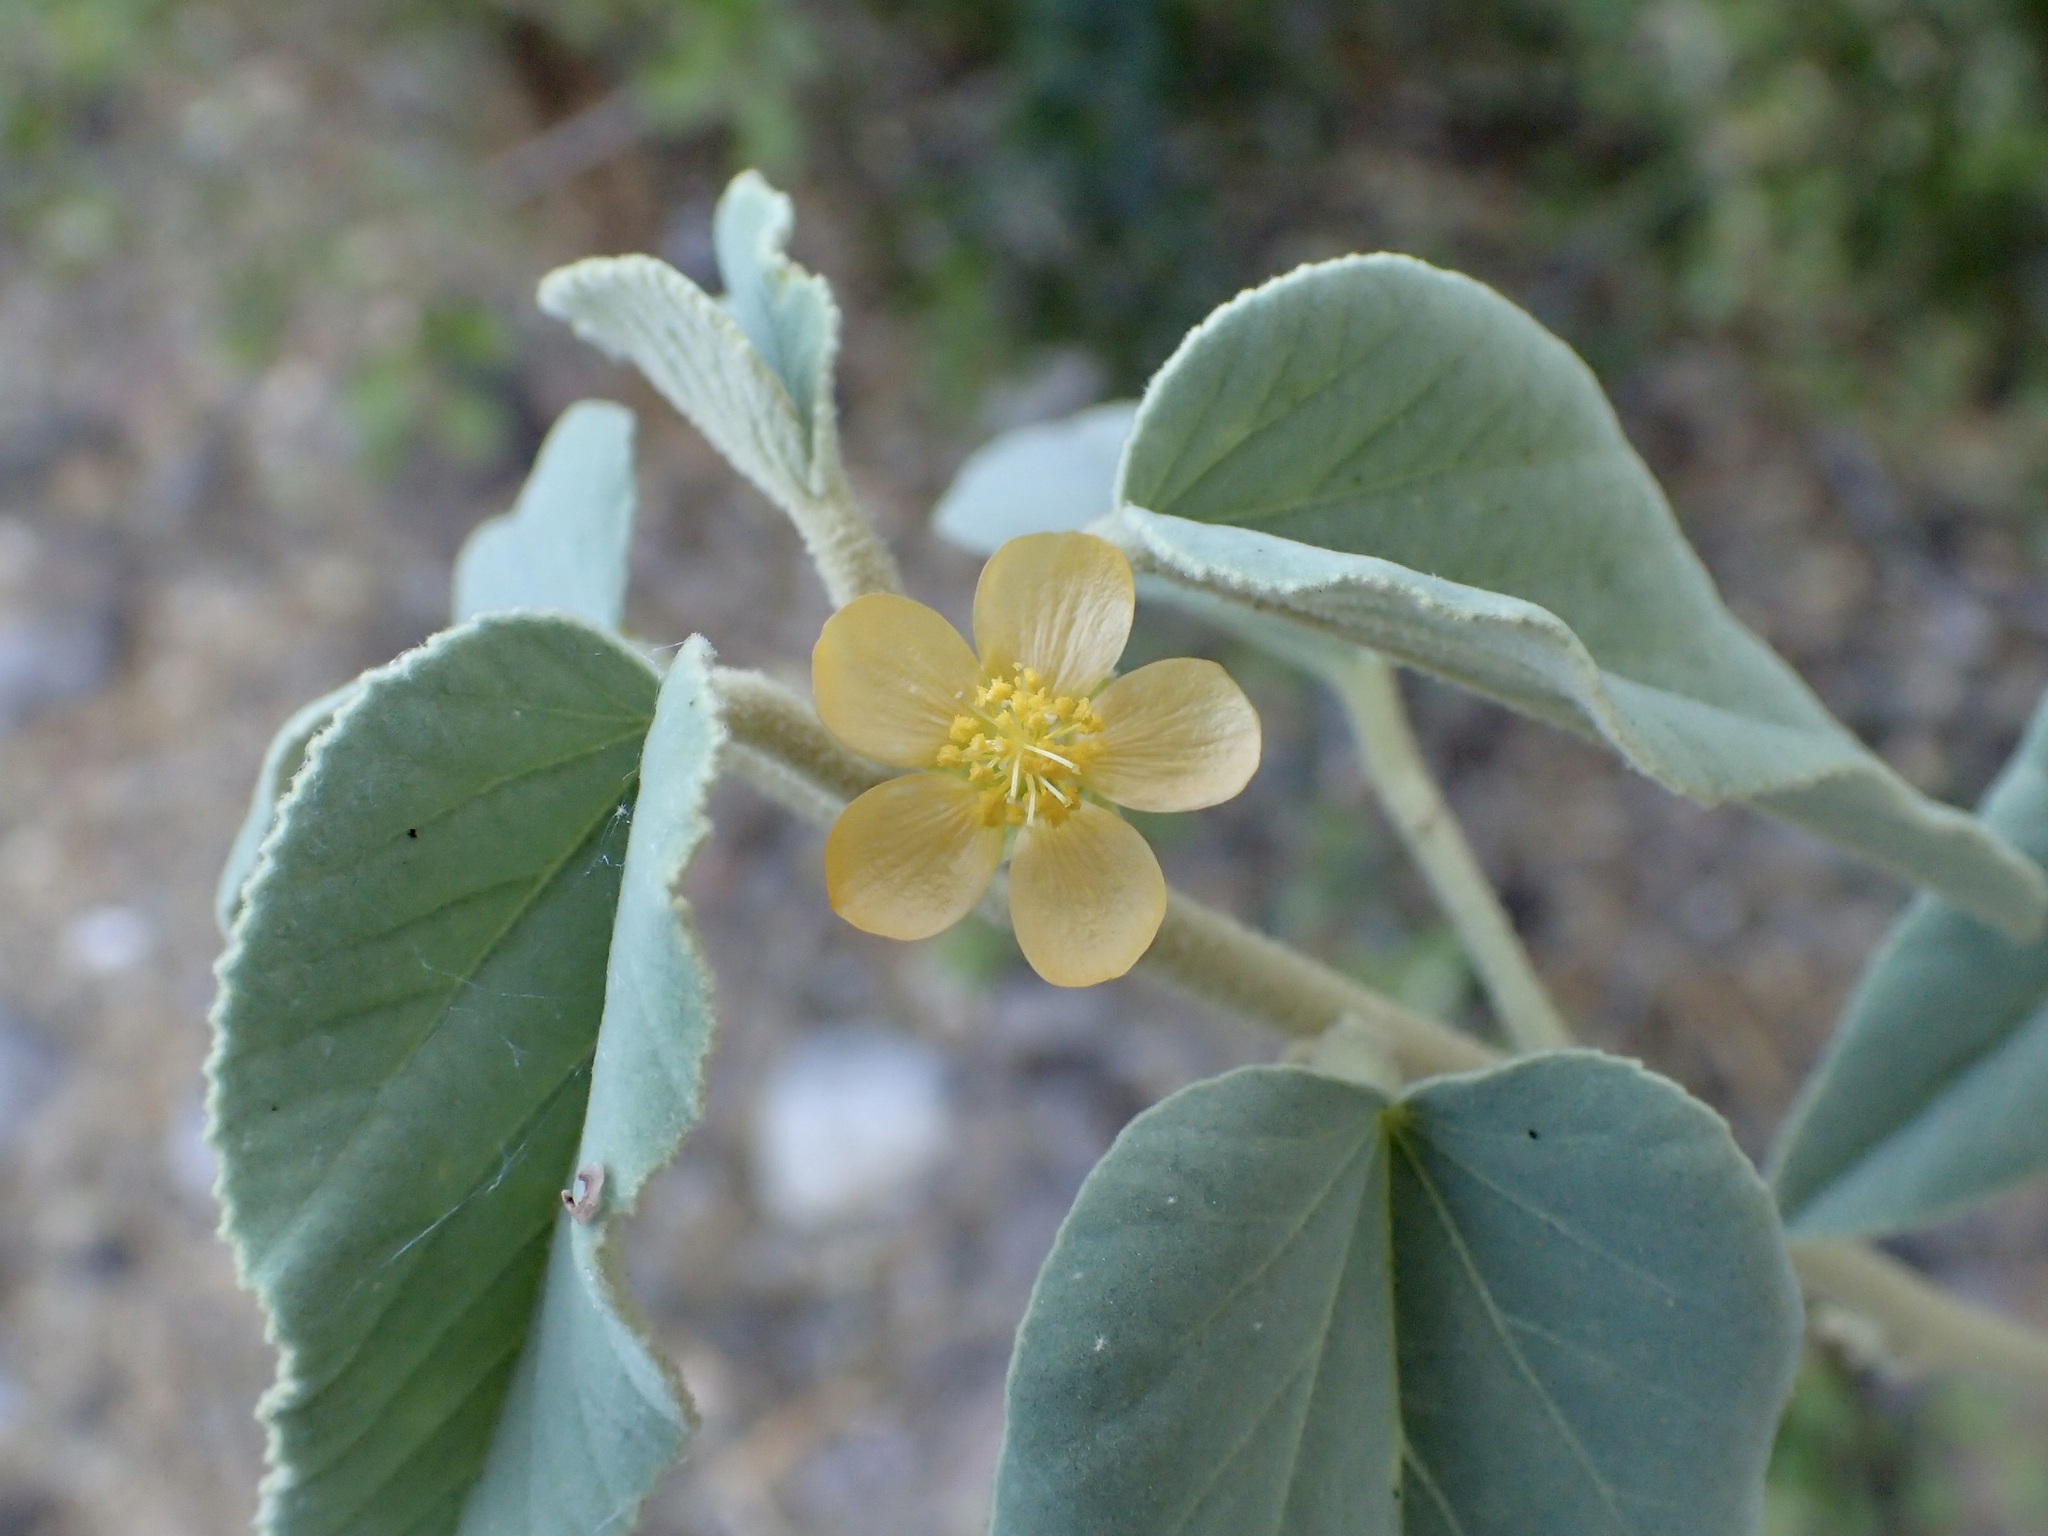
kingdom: Plantae
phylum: Tracheophyta
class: Magnoliopsida
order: Malvales
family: Malvaceae
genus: Horsfordia
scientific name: Horsfordia newberryi
